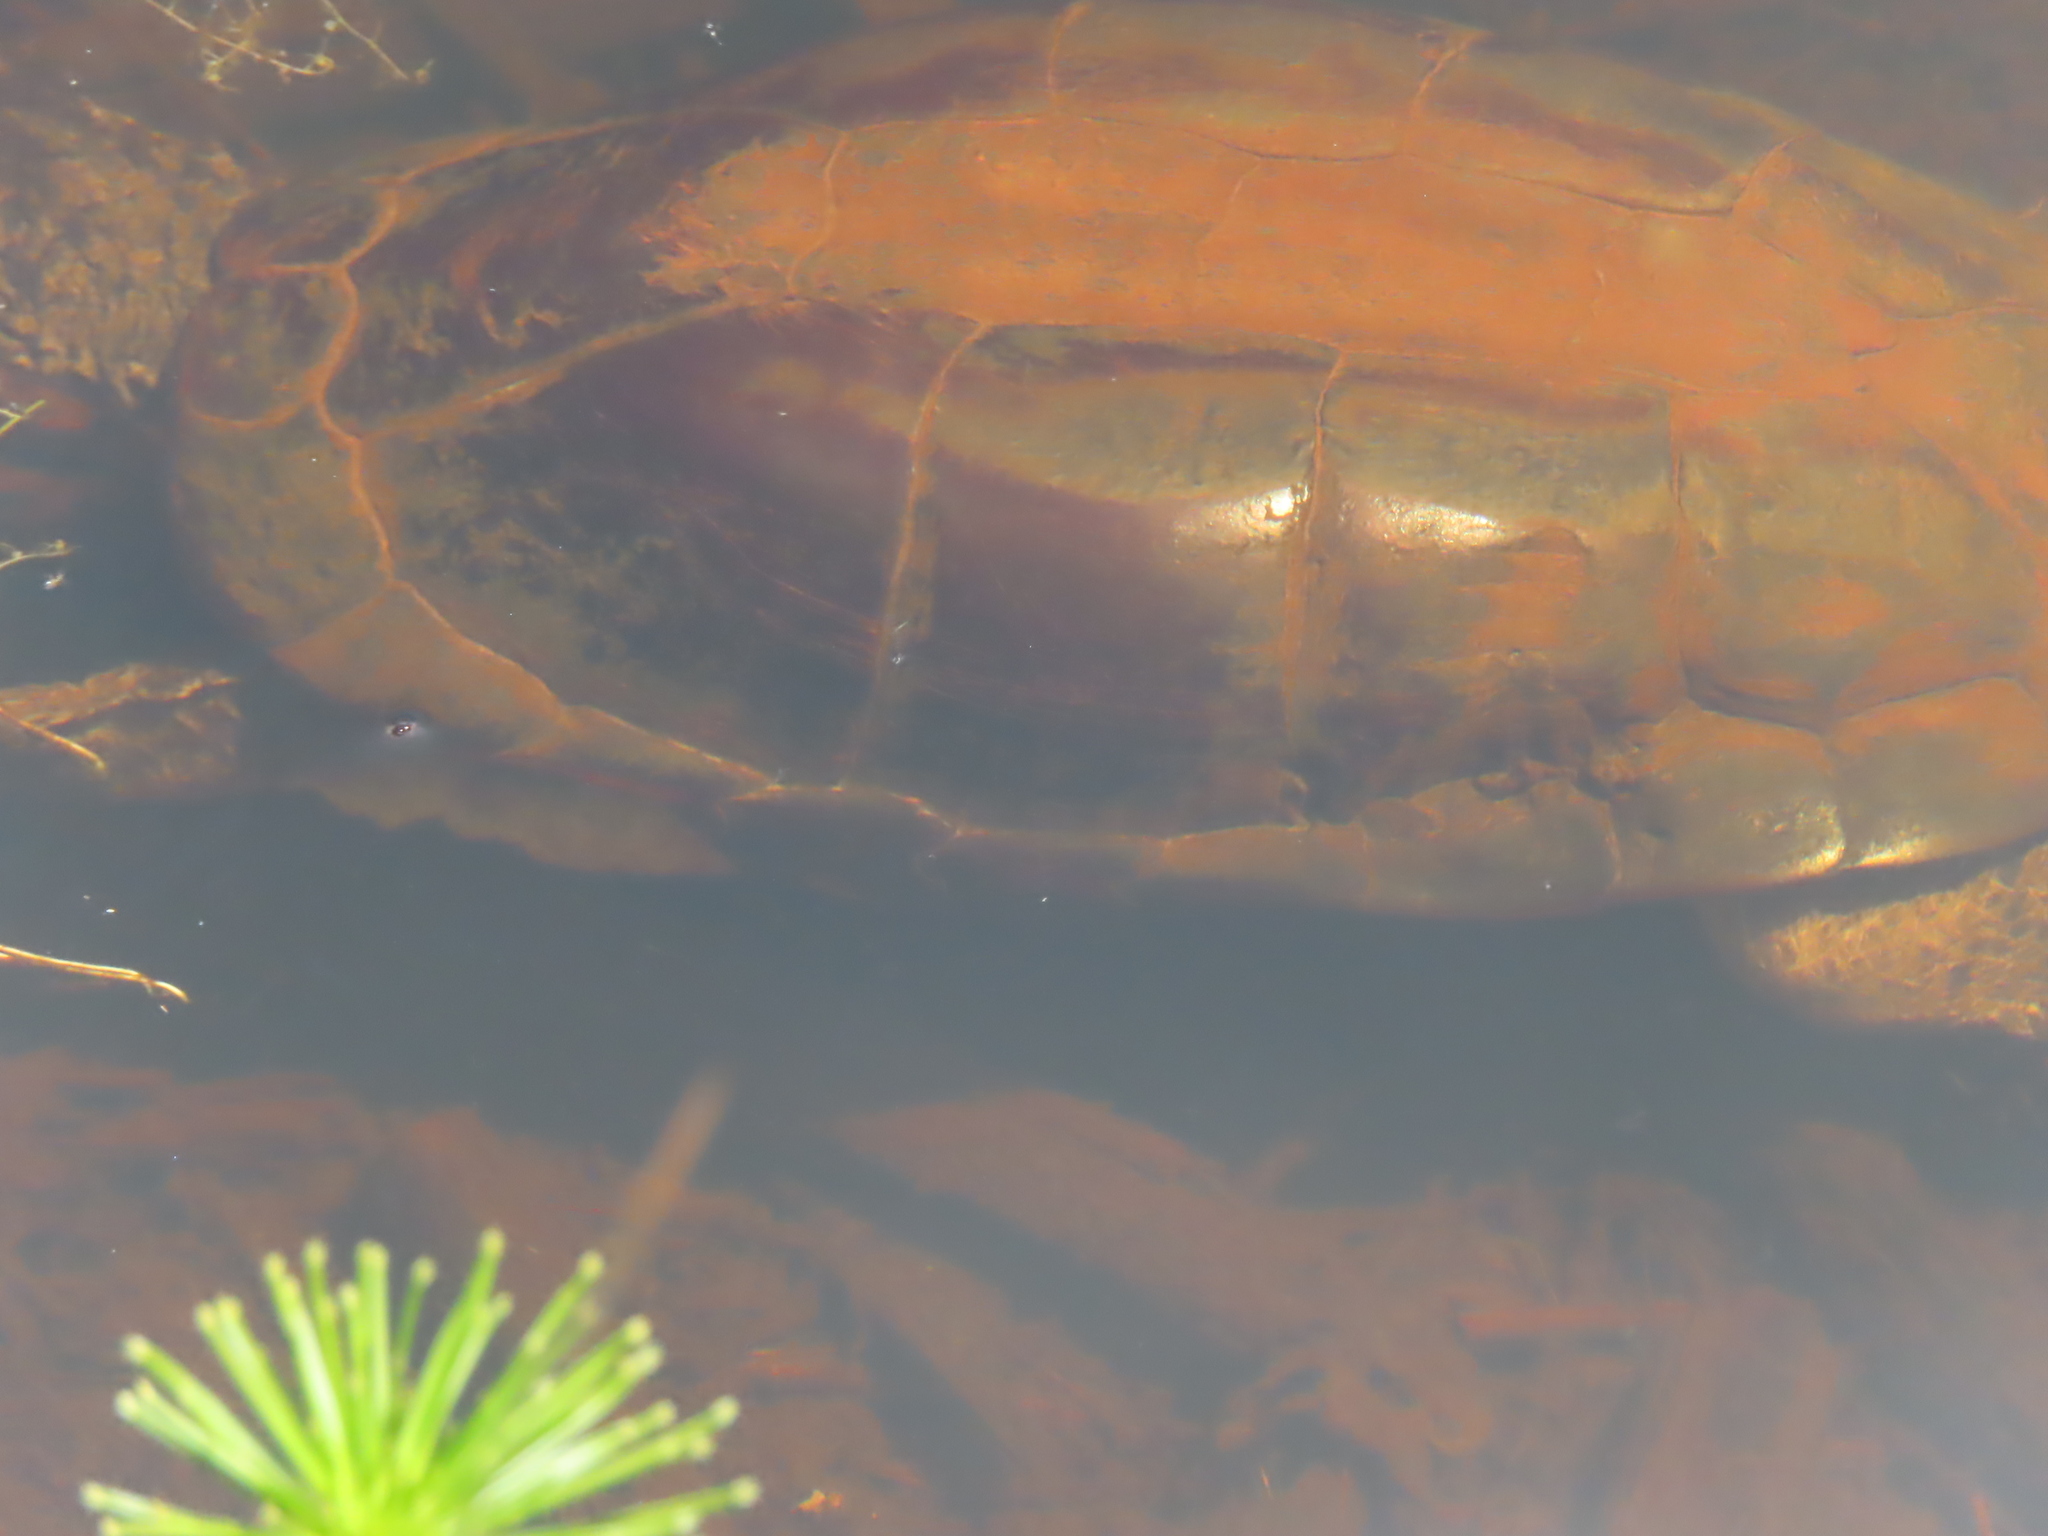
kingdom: Animalia
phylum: Chordata
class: Testudines
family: Pelomedusidae
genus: Pelomedusa
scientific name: Pelomedusa galeata
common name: South african helmeted terrapin
